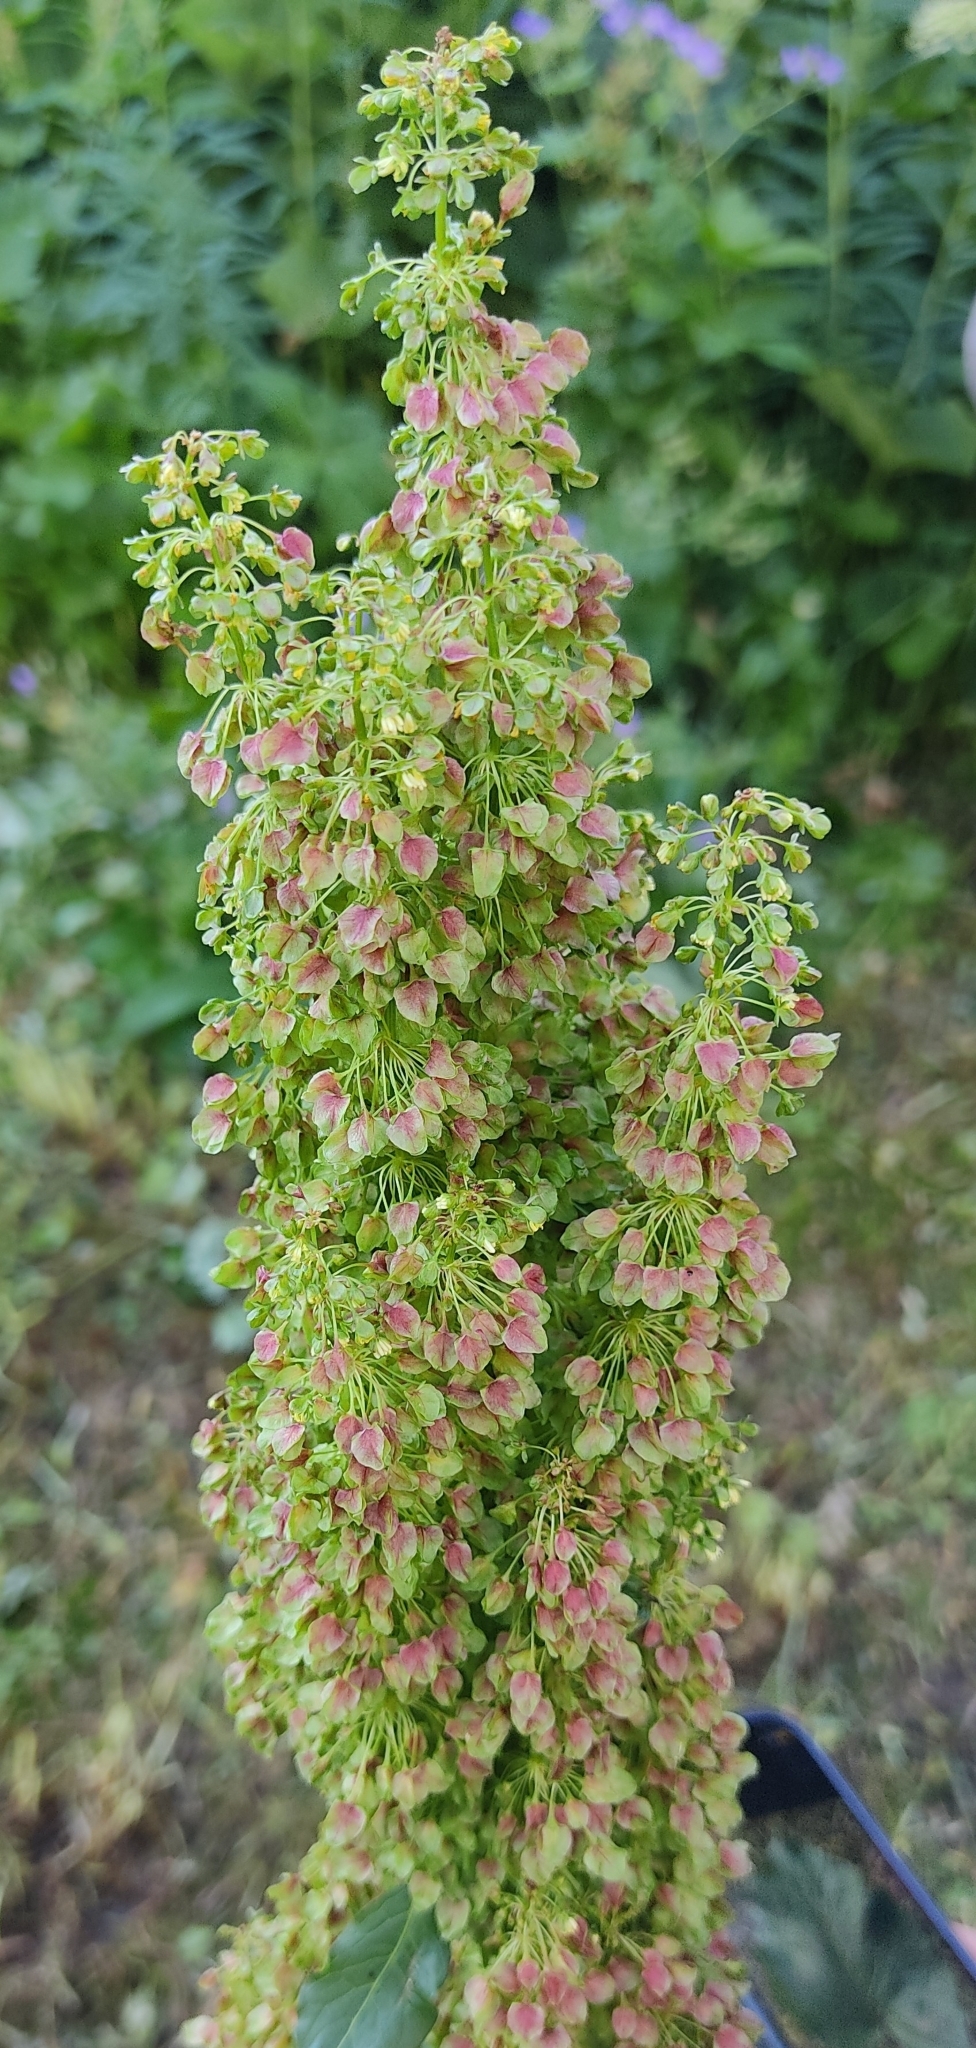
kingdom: Plantae
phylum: Tracheophyta
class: Magnoliopsida
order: Caryophyllales
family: Polygonaceae
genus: Rumex
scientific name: Rumex alpinus
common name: Alpine dock
